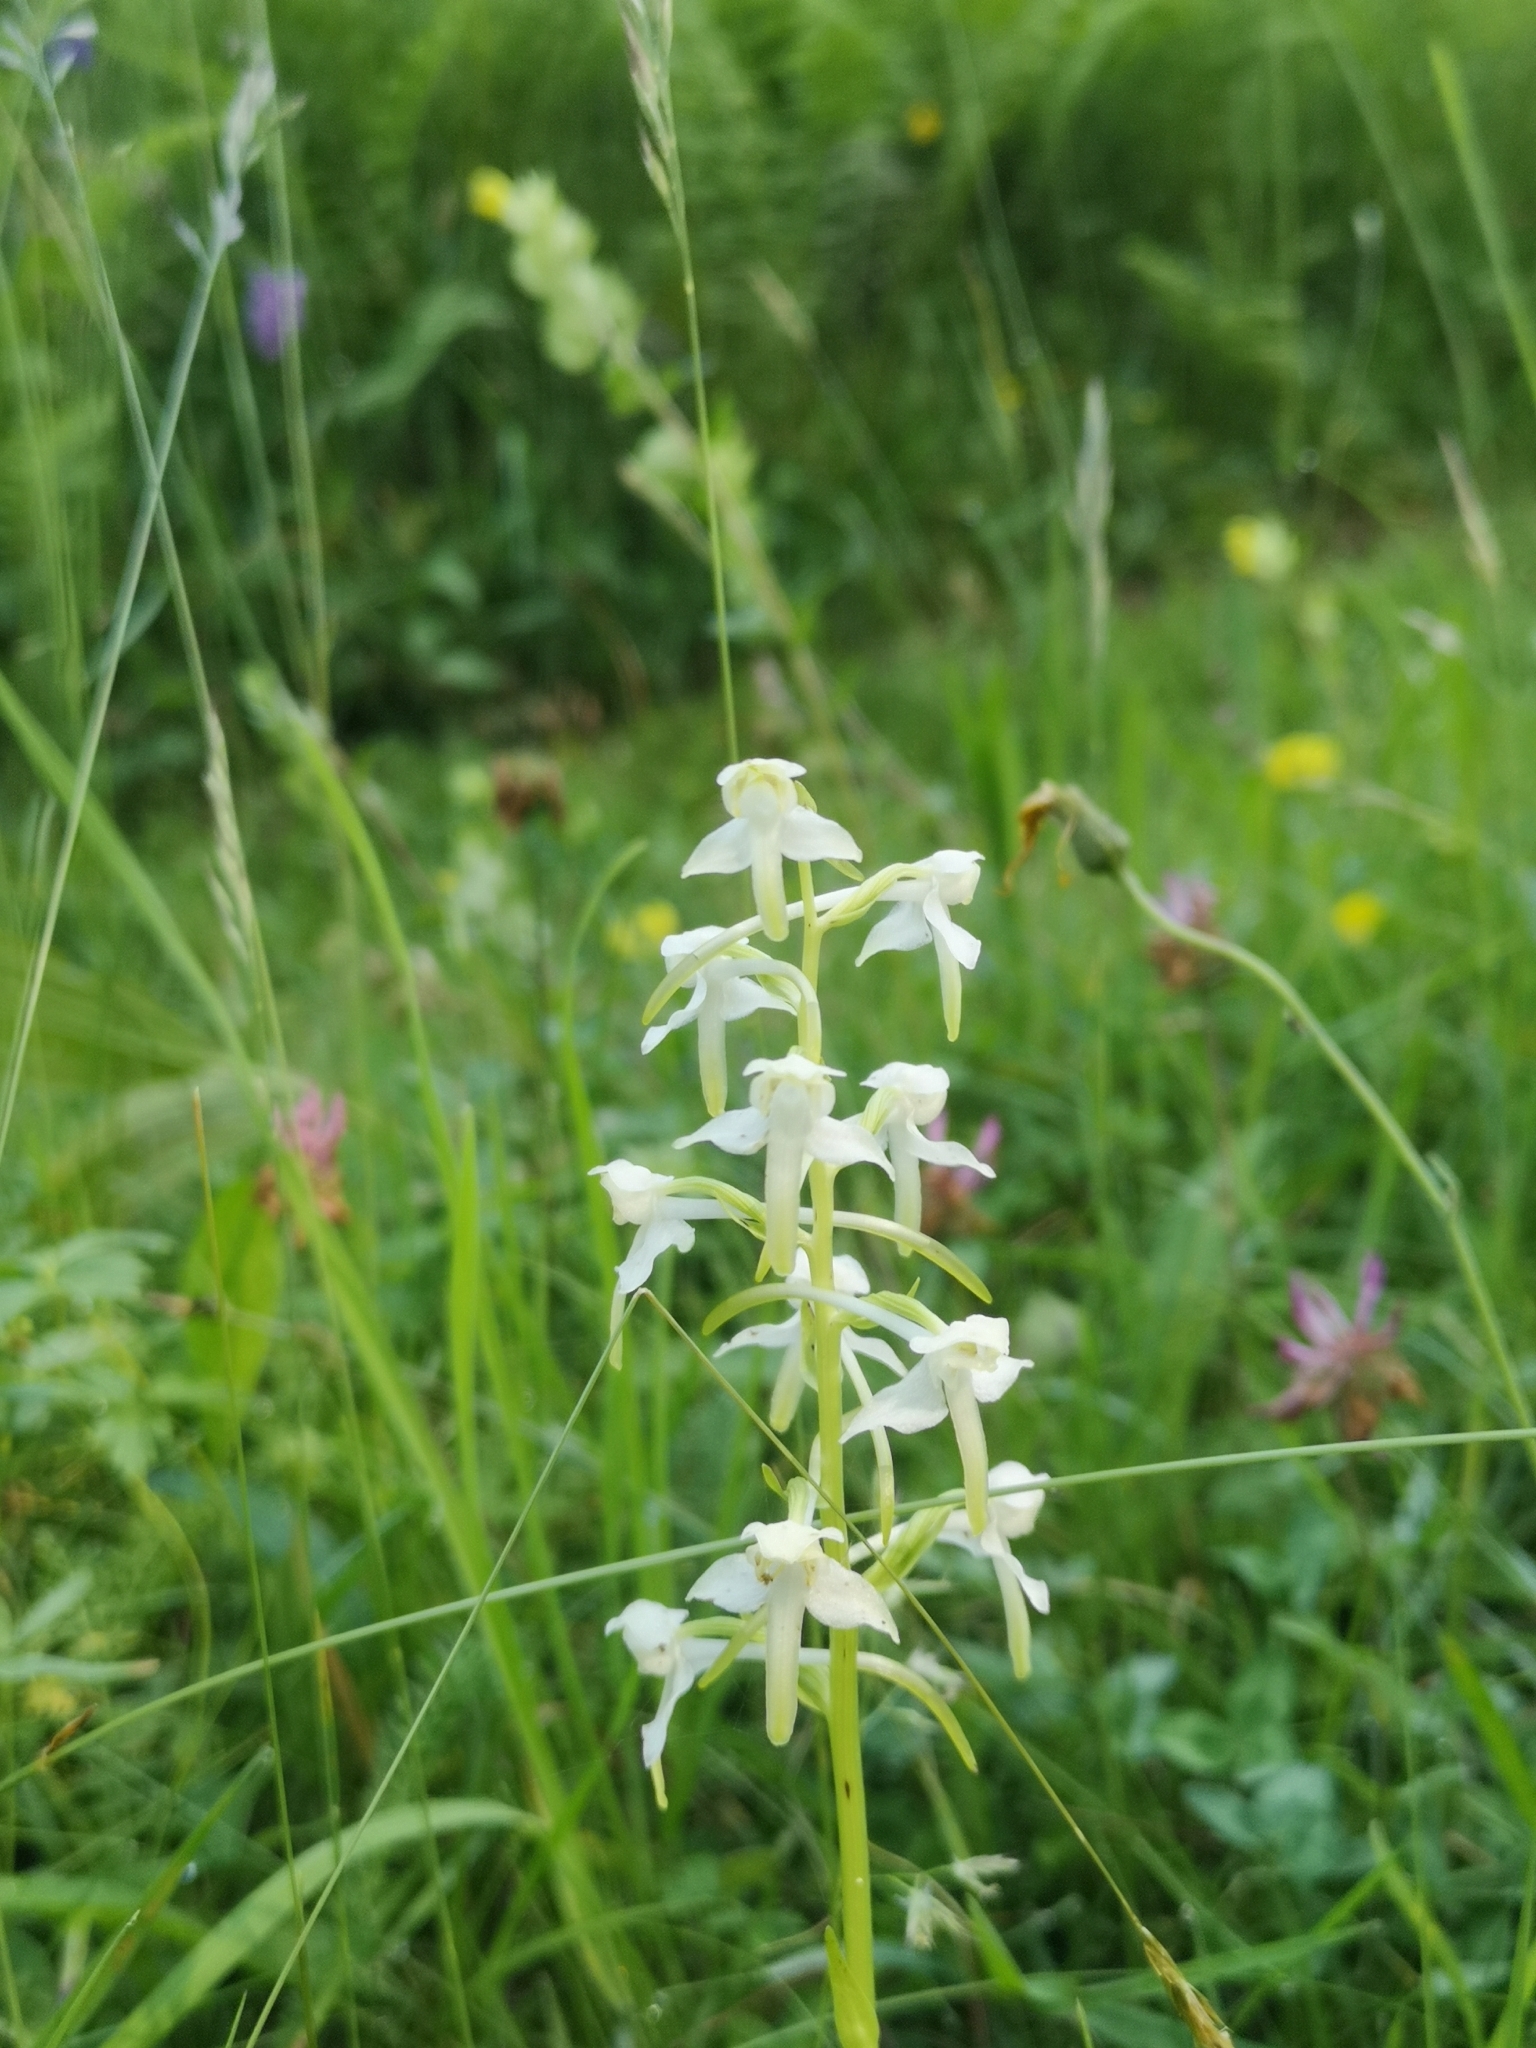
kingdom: Plantae
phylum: Tracheophyta
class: Liliopsida
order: Asparagales
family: Orchidaceae
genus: Platanthera
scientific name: Platanthera bifolia
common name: Lesser butterfly-orchid
